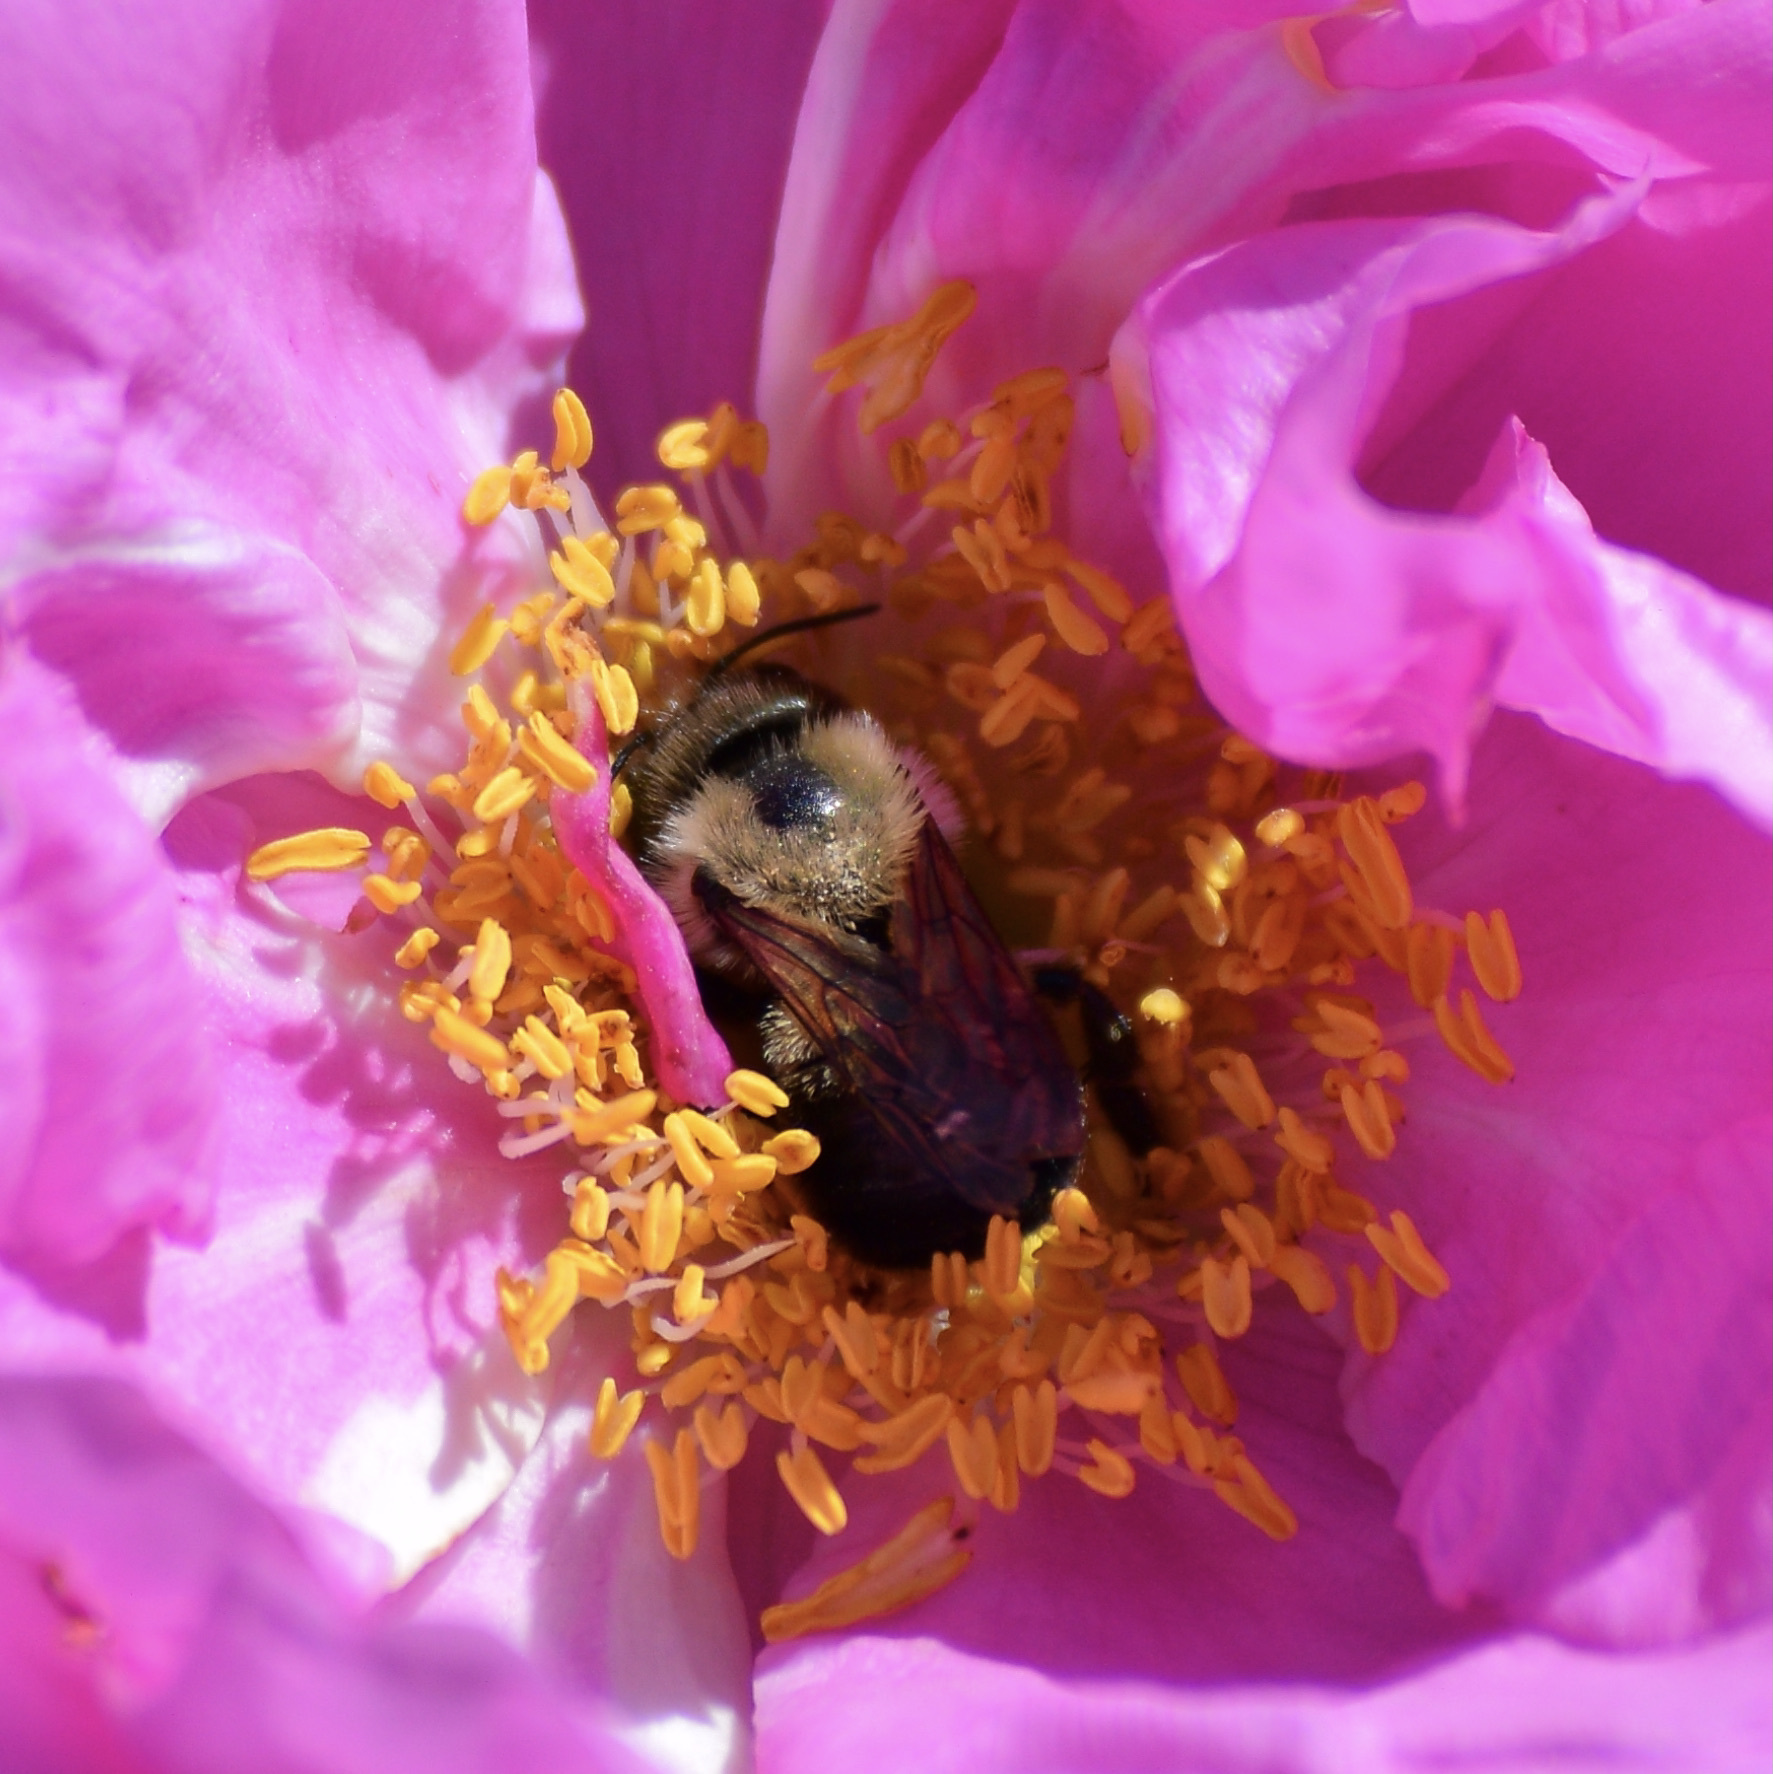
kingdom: Animalia
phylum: Arthropoda
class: Insecta
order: Hymenoptera
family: Megachilidae
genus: Osmia
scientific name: Osmia bucephala
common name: Bufflehead mason bee
